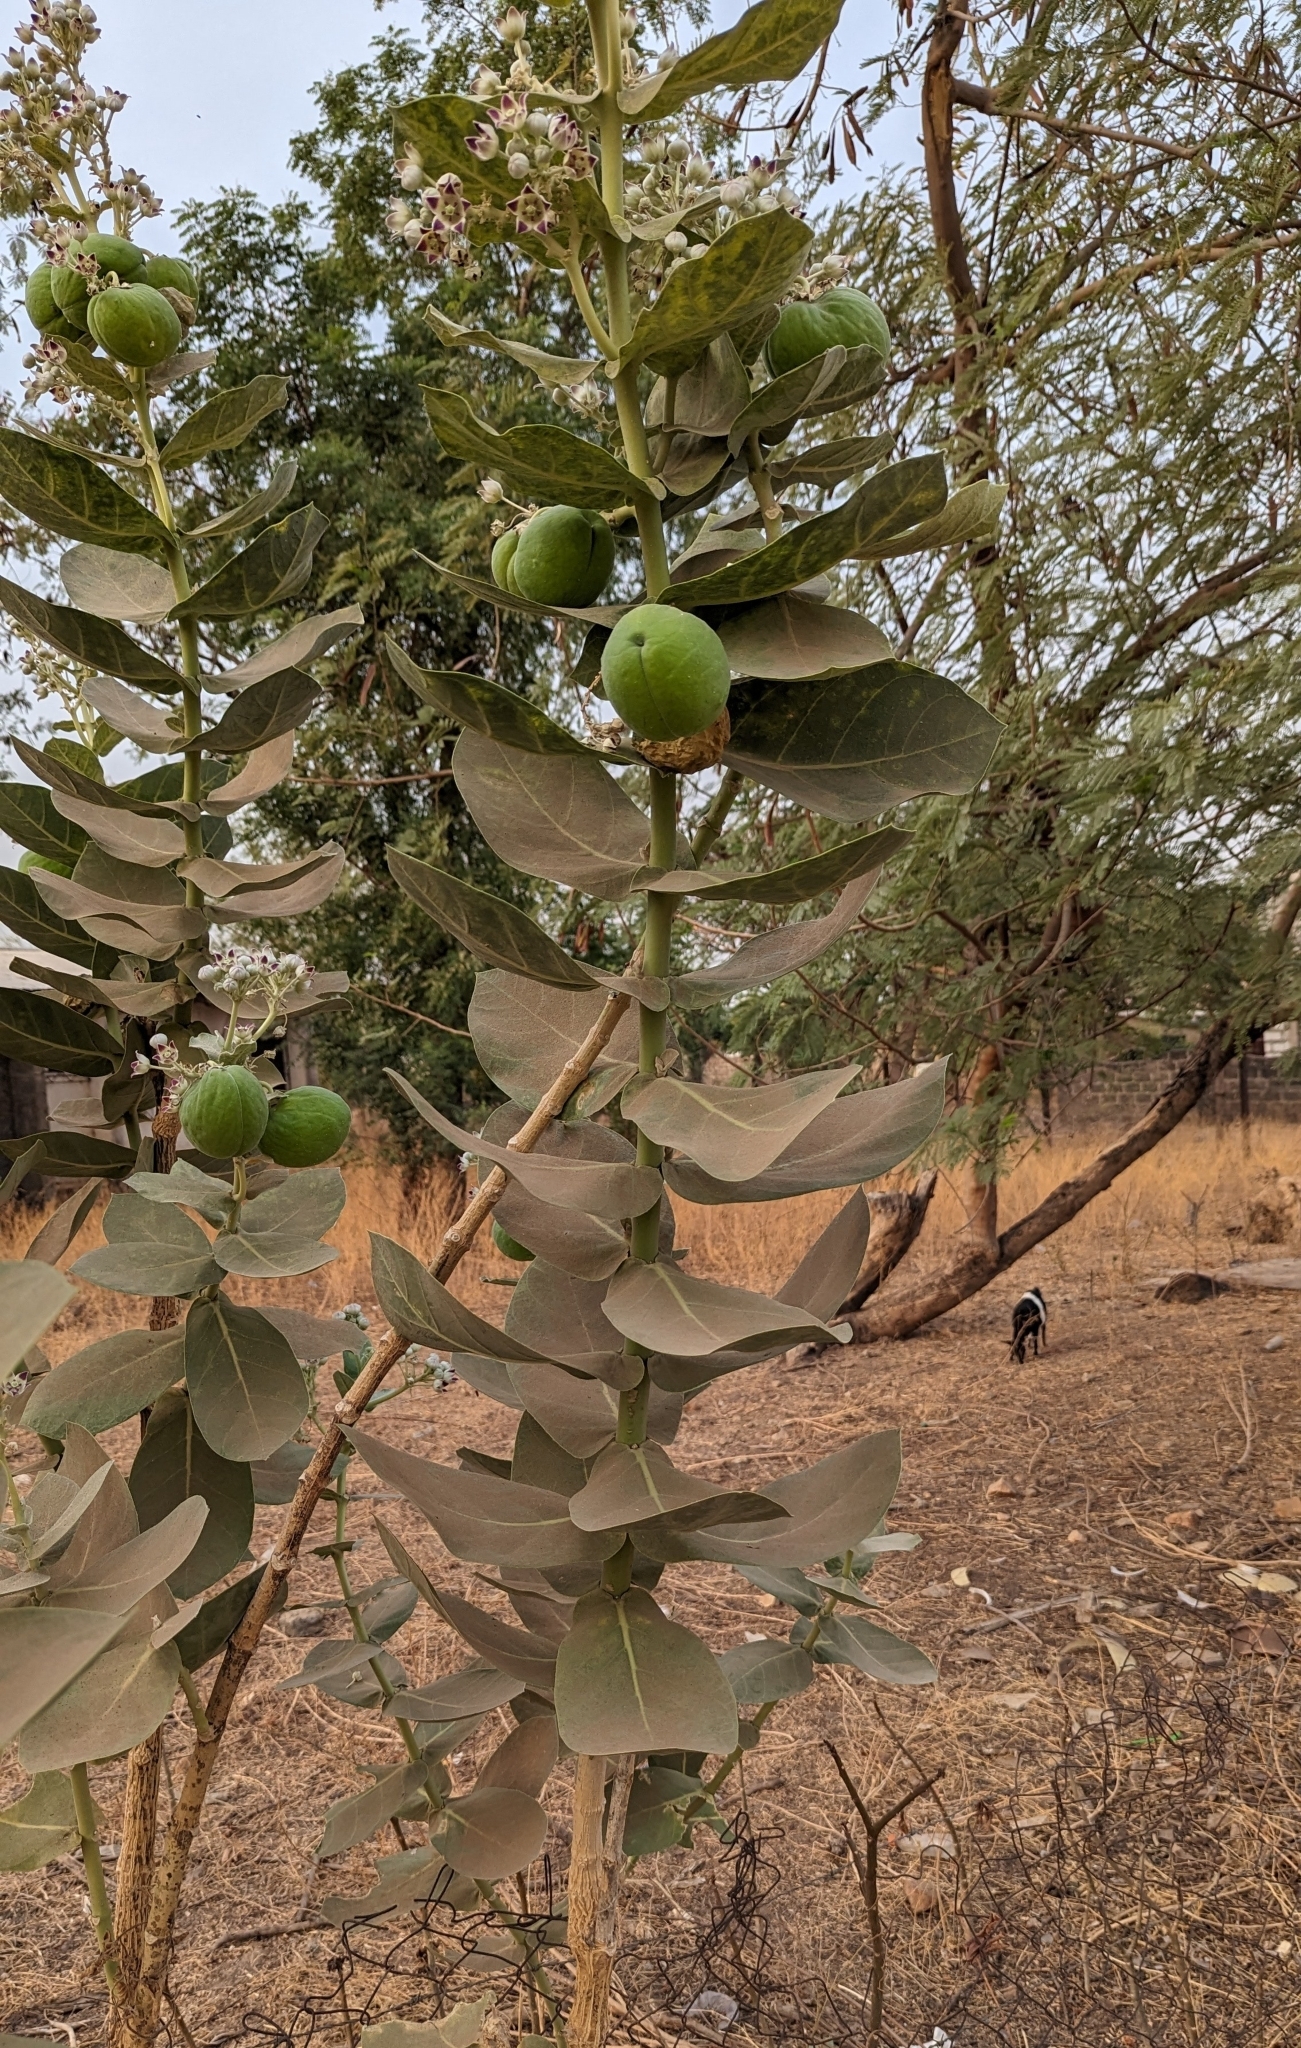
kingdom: Plantae
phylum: Tracheophyta
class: Magnoliopsida
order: Gentianales
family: Apocynaceae
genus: Calotropis
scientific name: Calotropis procera
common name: Roostertree
